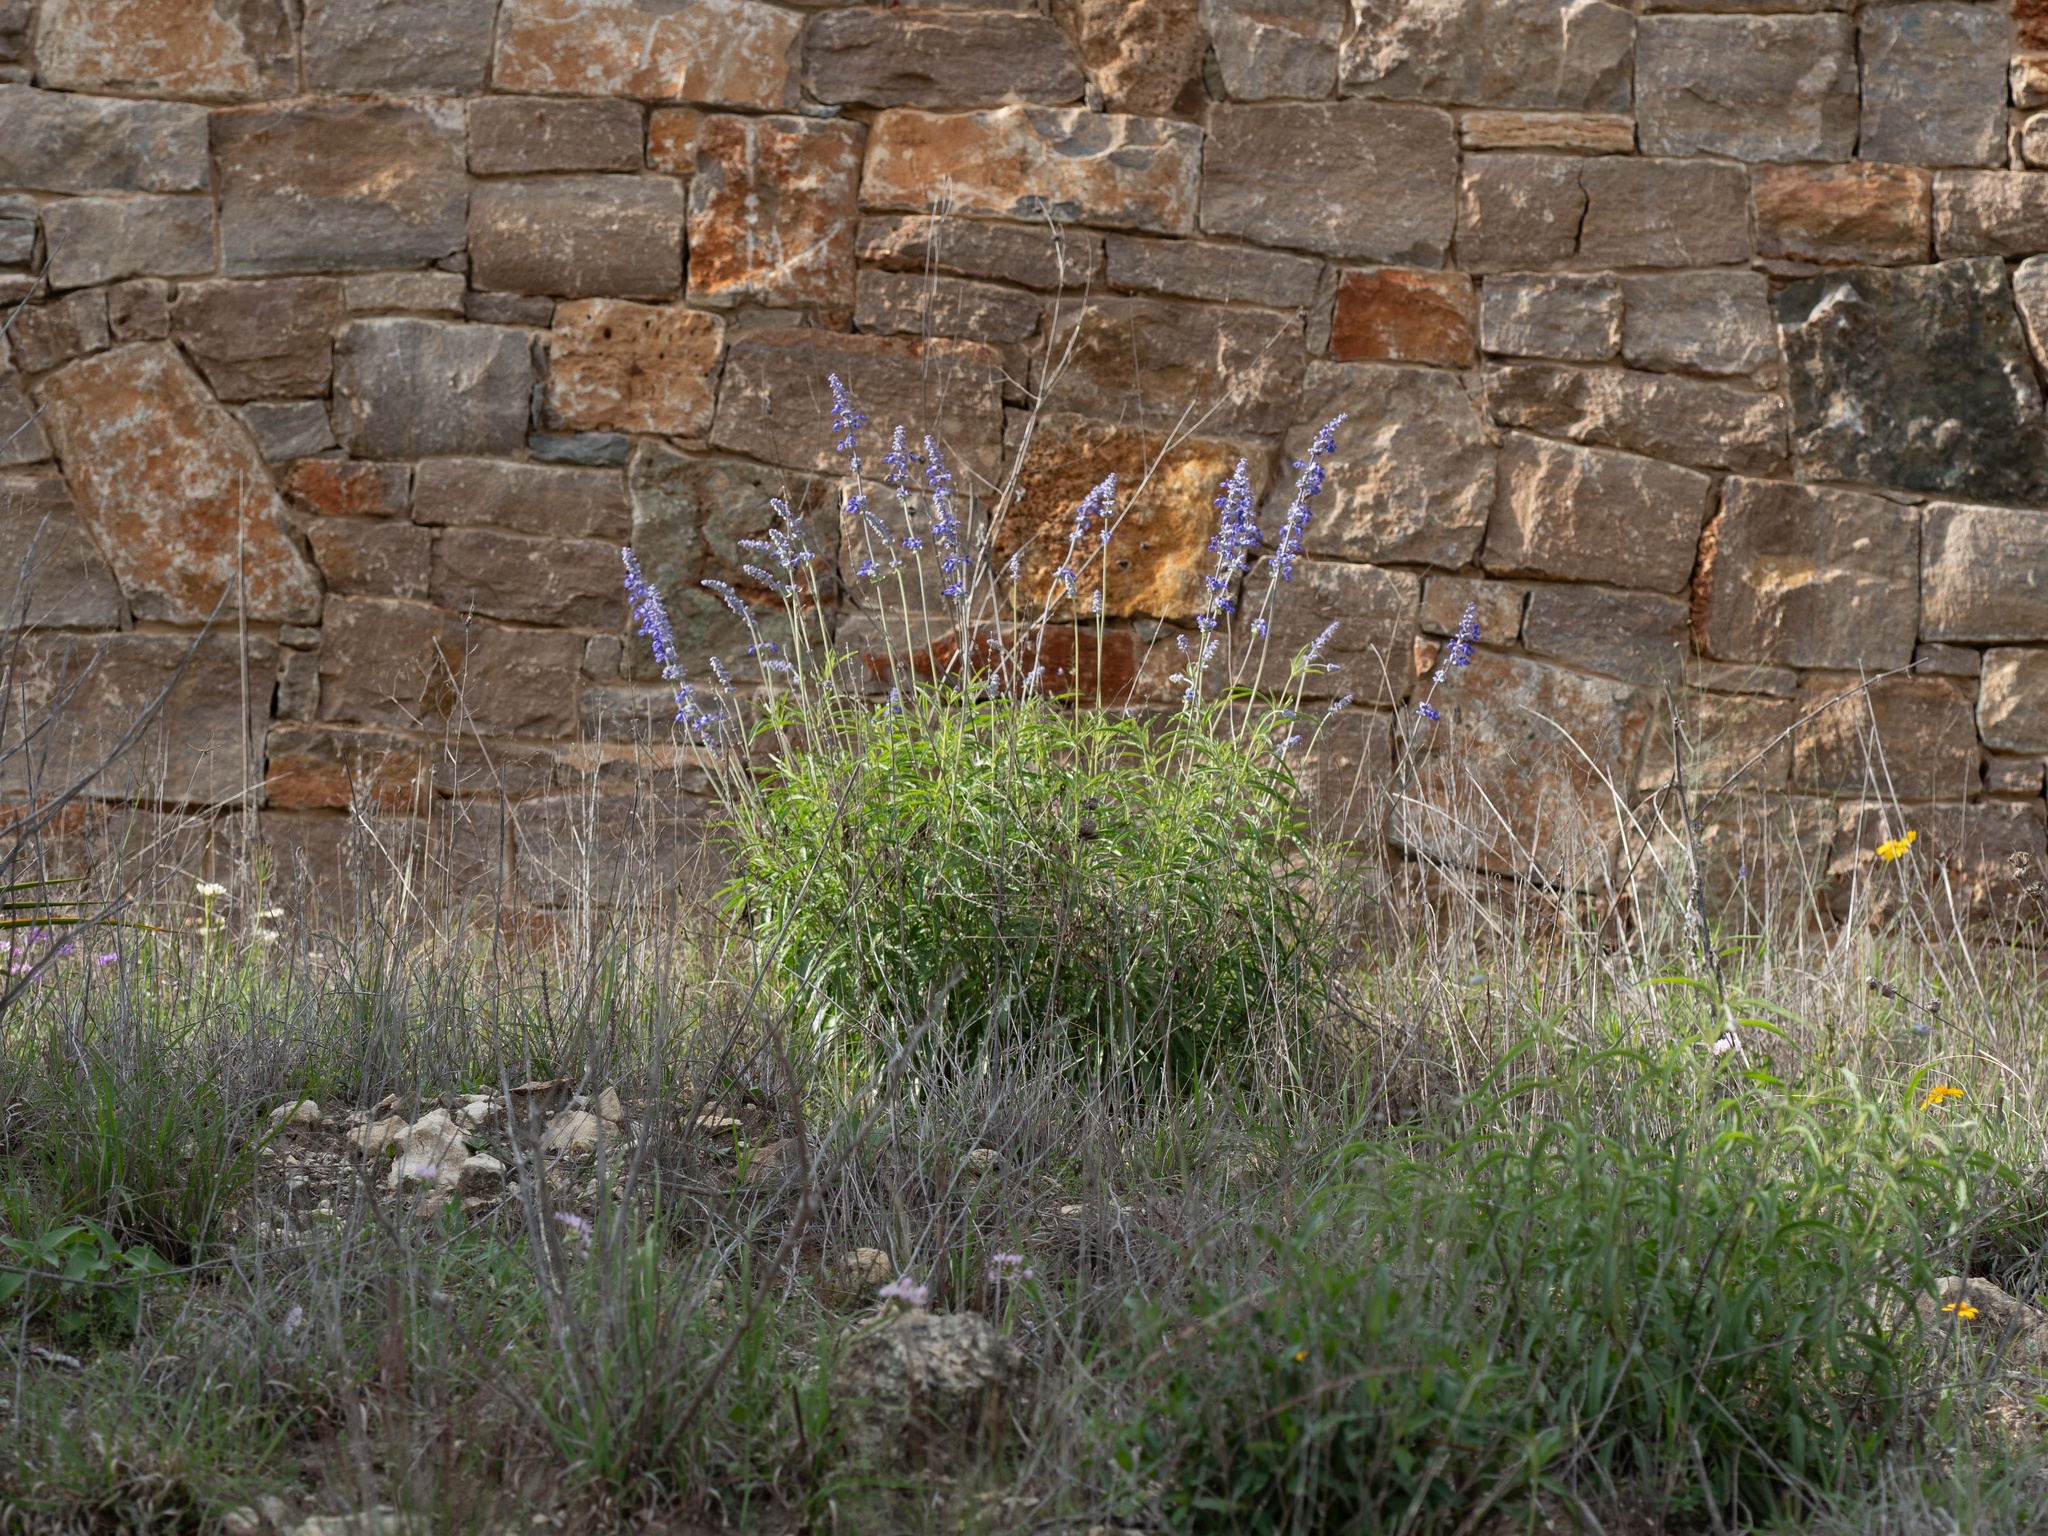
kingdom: Plantae
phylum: Tracheophyta
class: Magnoliopsida
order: Lamiales
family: Lamiaceae
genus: Salvia
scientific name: Salvia farinacea
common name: Mealy sage
